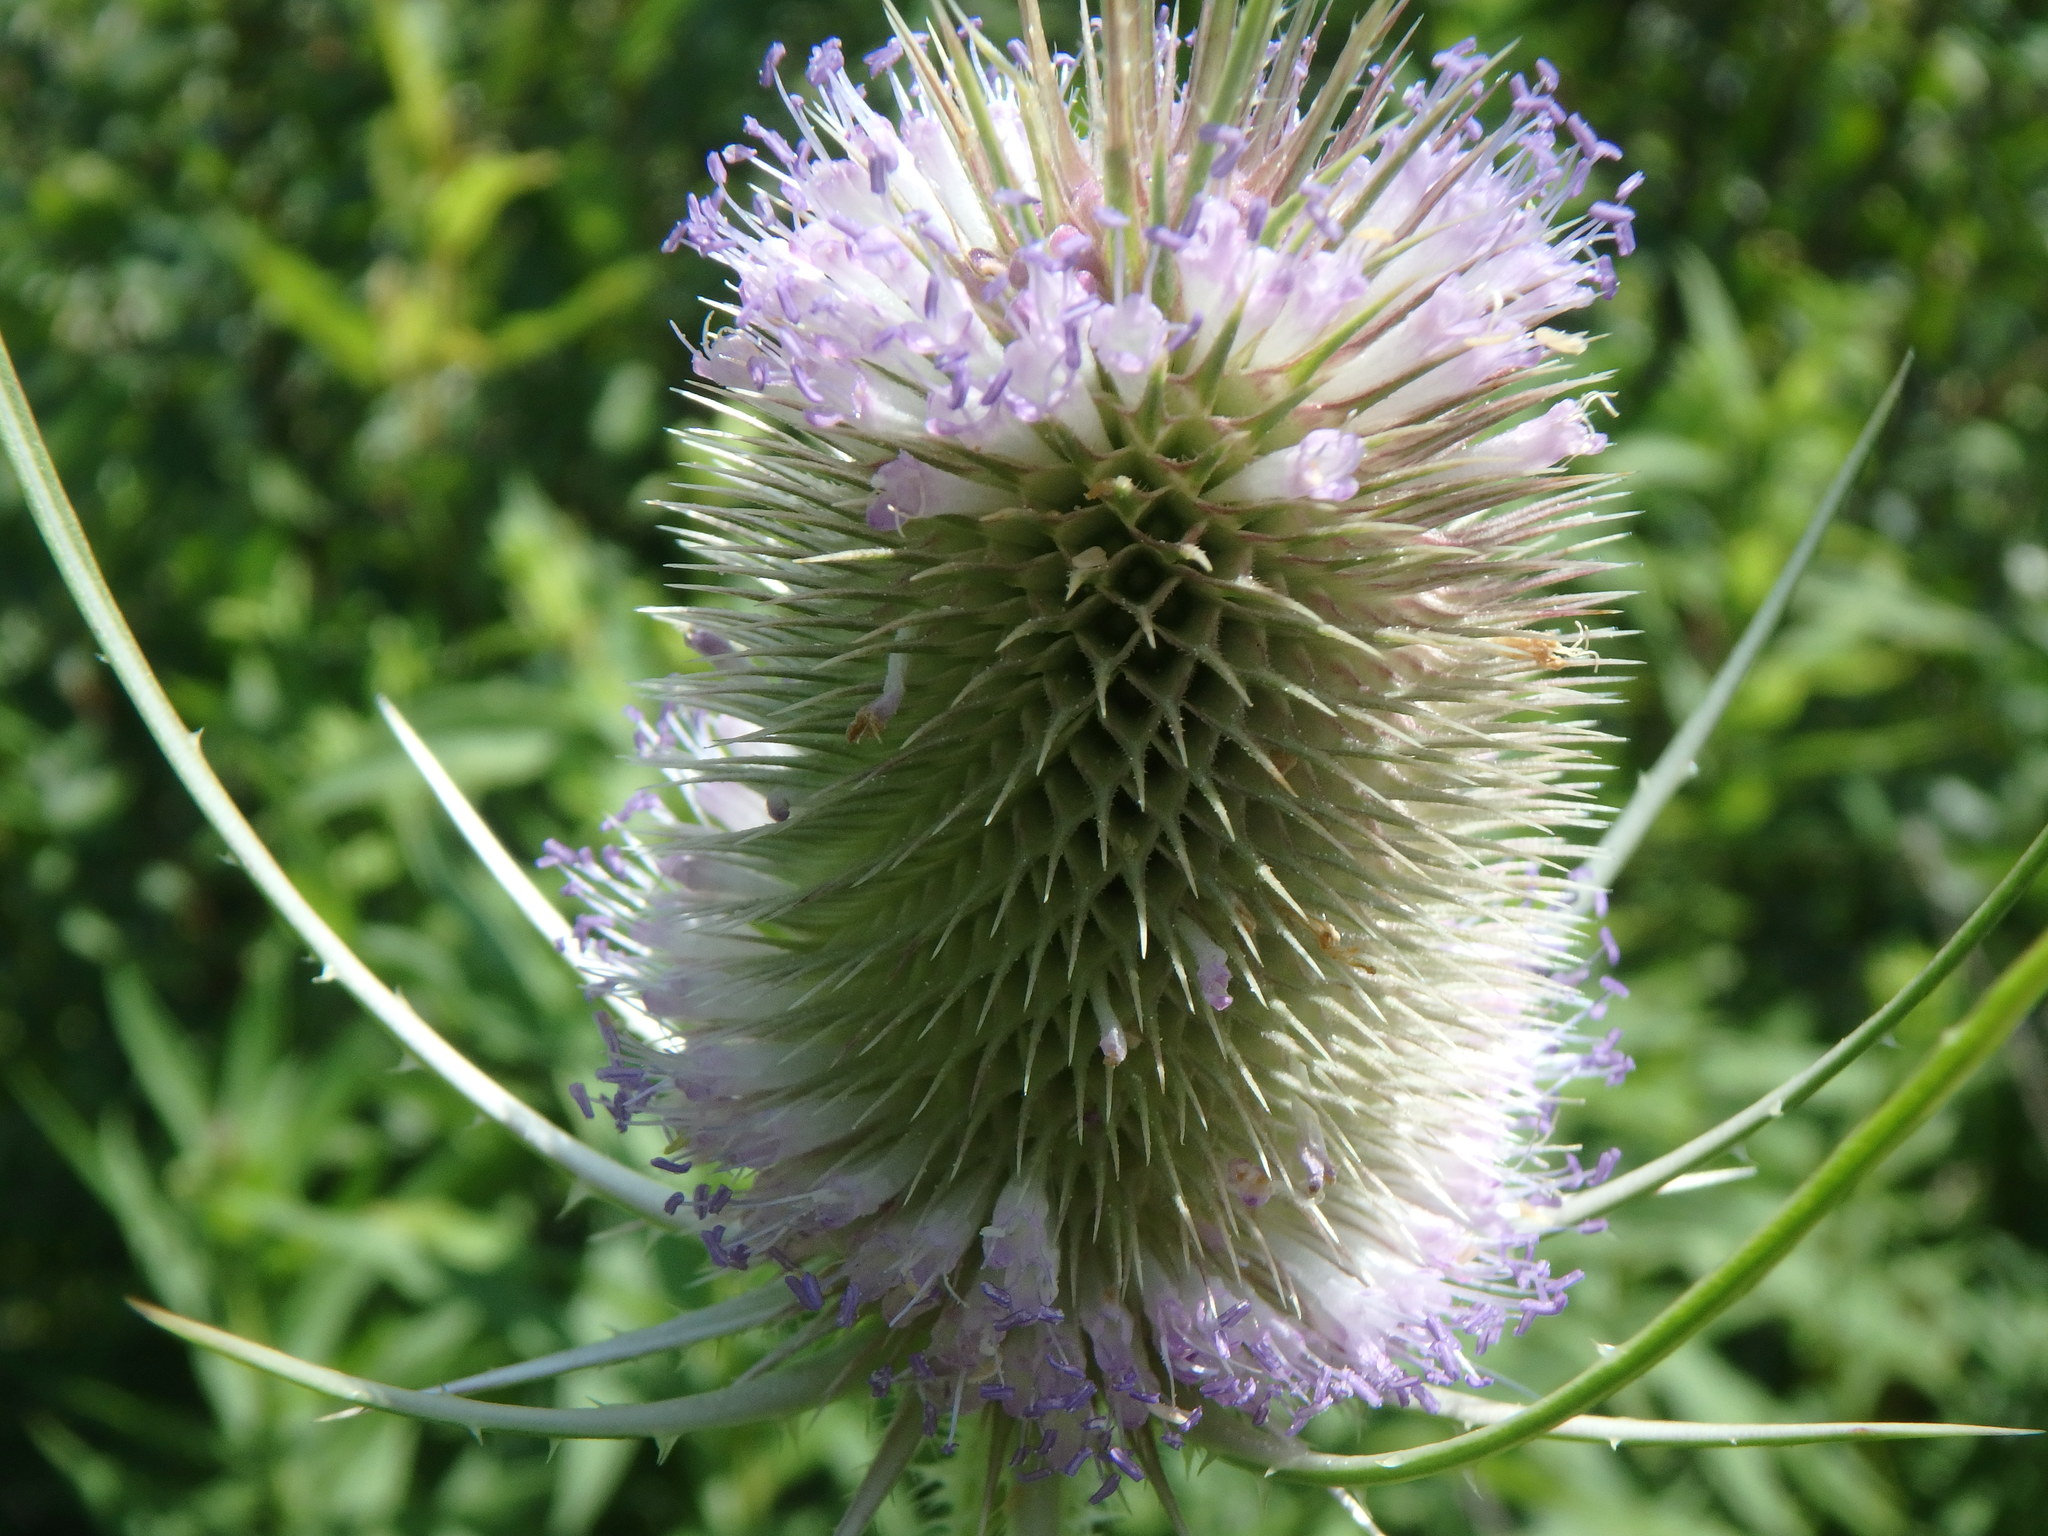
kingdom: Plantae
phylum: Tracheophyta
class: Magnoliopsida
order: Dipsacales
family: Caprifoliaceae
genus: Dipsacus
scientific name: Dipsacus fullonum
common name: Teasel
